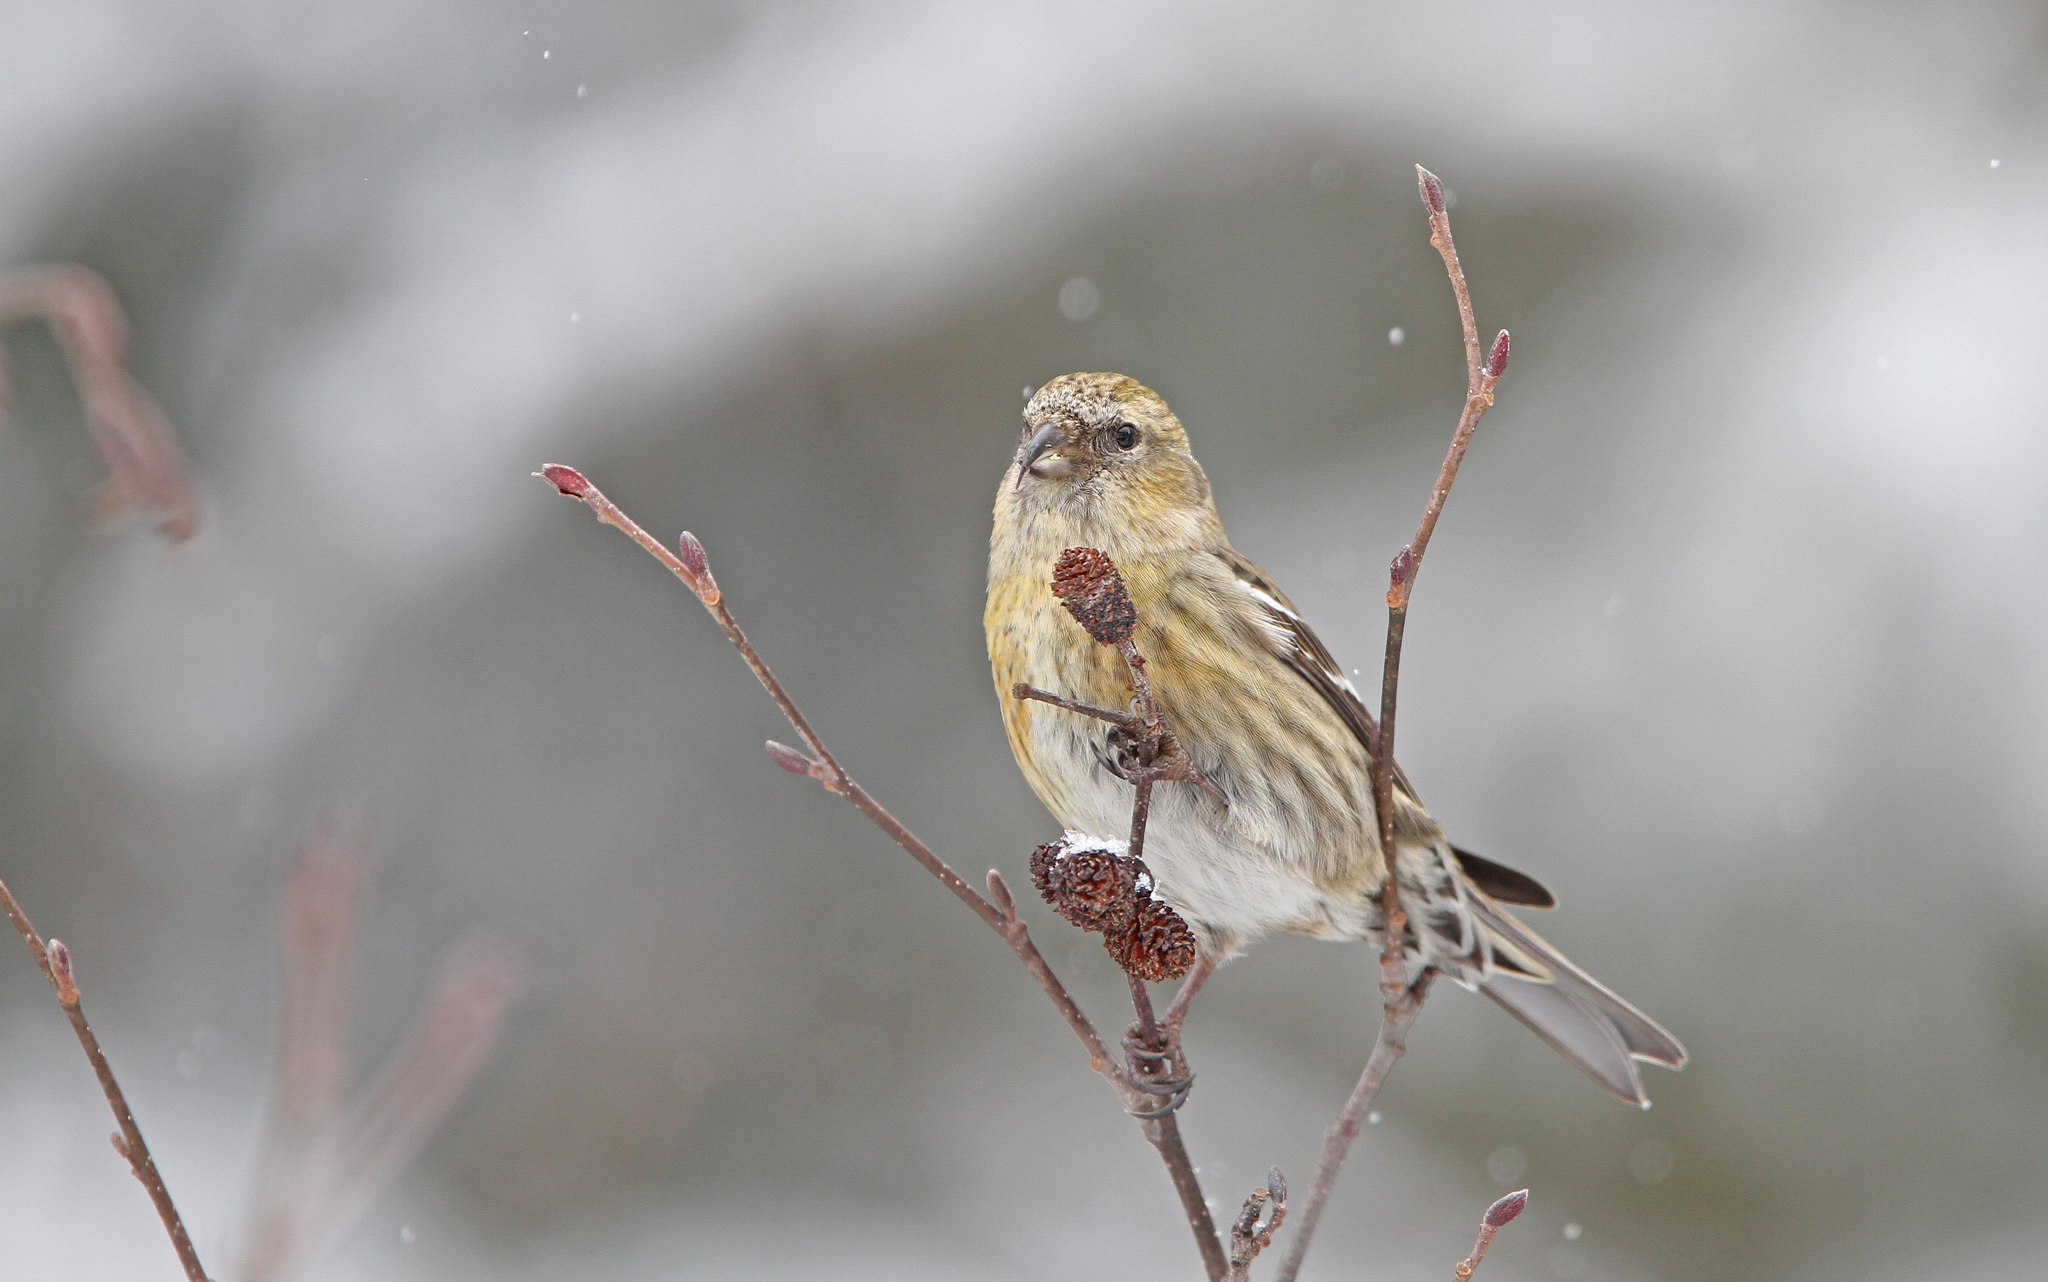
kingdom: Animalia
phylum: Chordata
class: Aves
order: Passeriformes
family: Fringillidae
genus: Loxia
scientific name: Loxia leucoptera
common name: Two-barred crossbill
